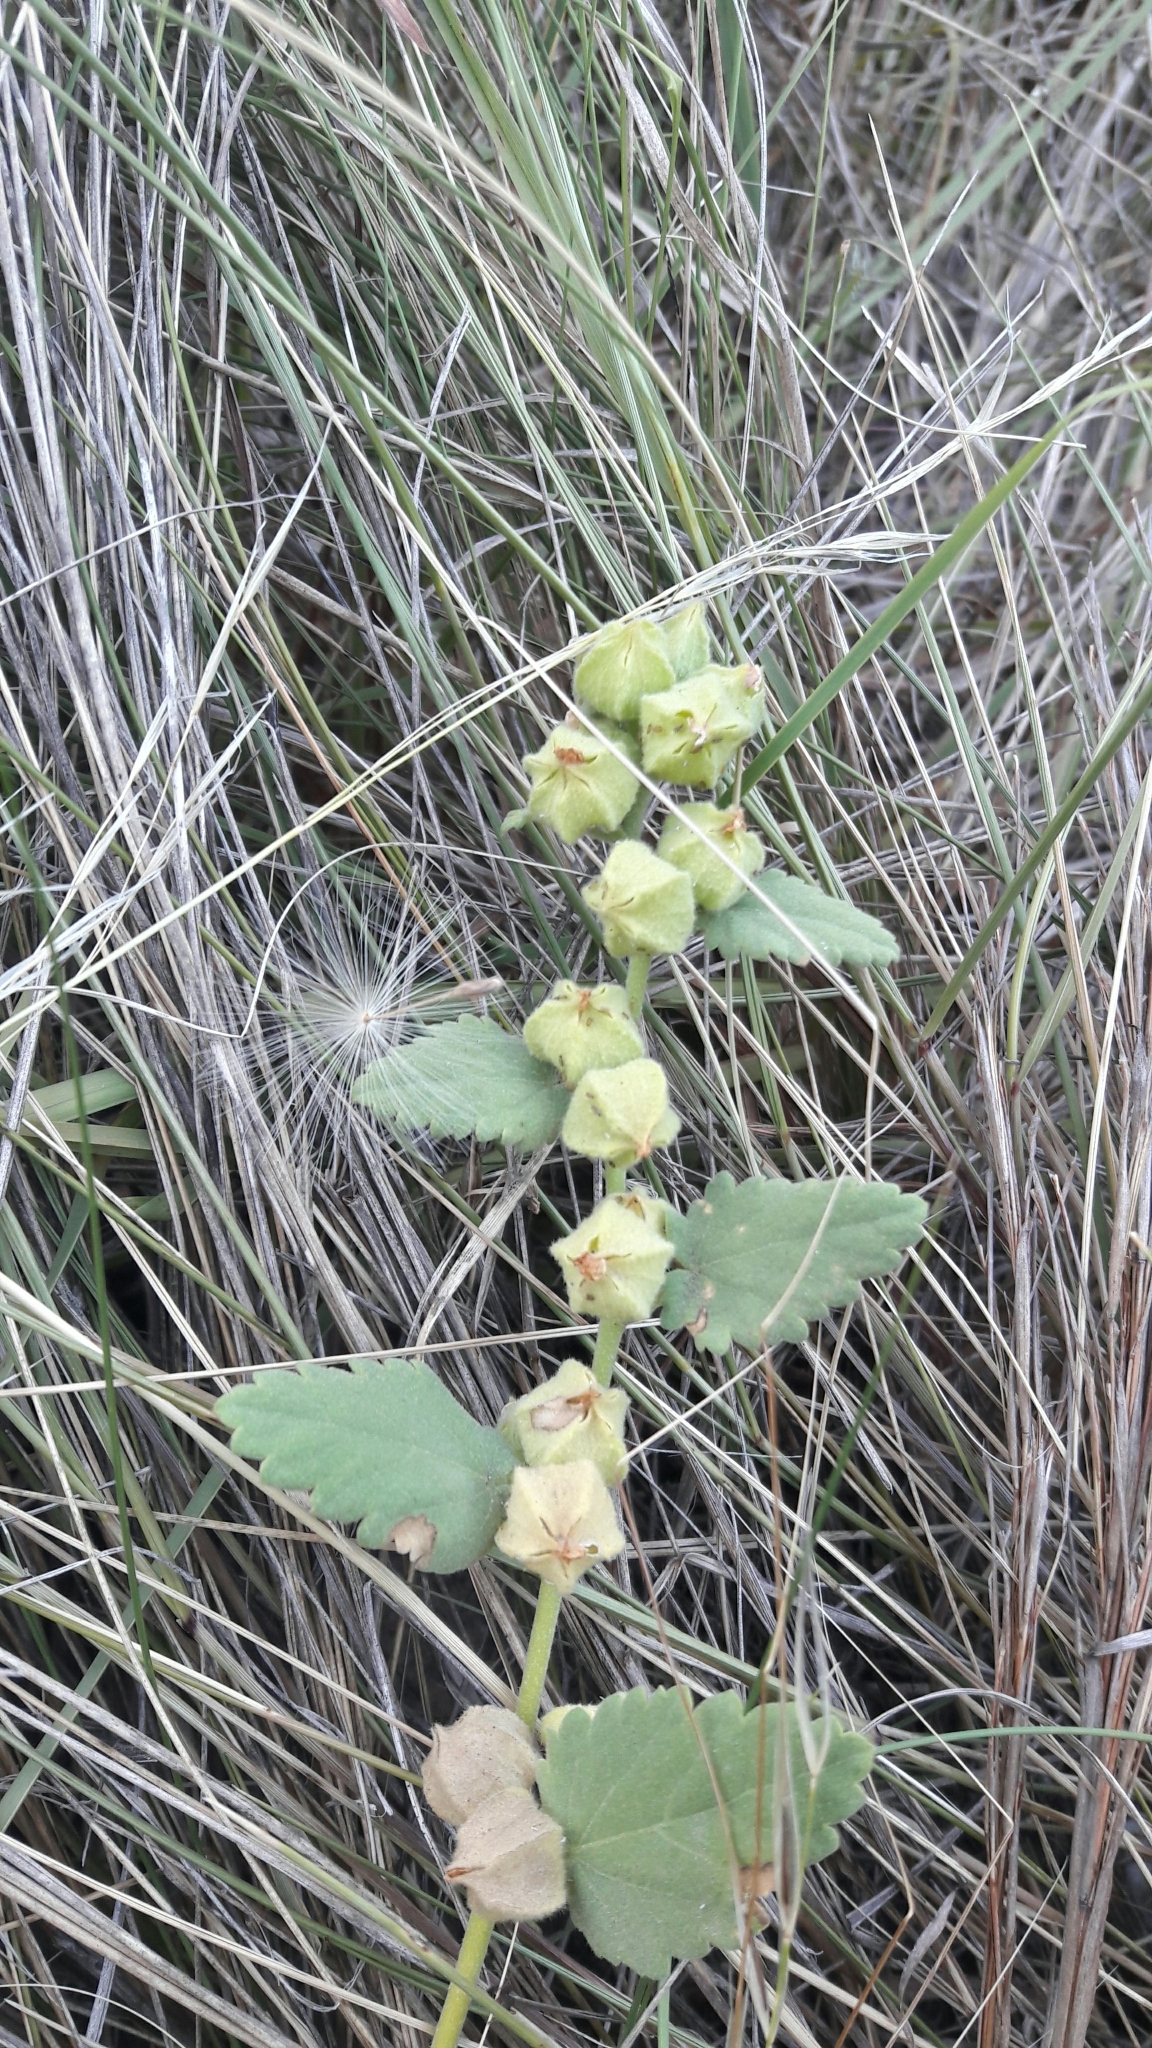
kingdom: Plantae
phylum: Tracheophyta
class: Magnoliopsida
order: Malvales
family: Malvaceae
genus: Krapovickasia
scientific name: Krapovickasia flavescens
